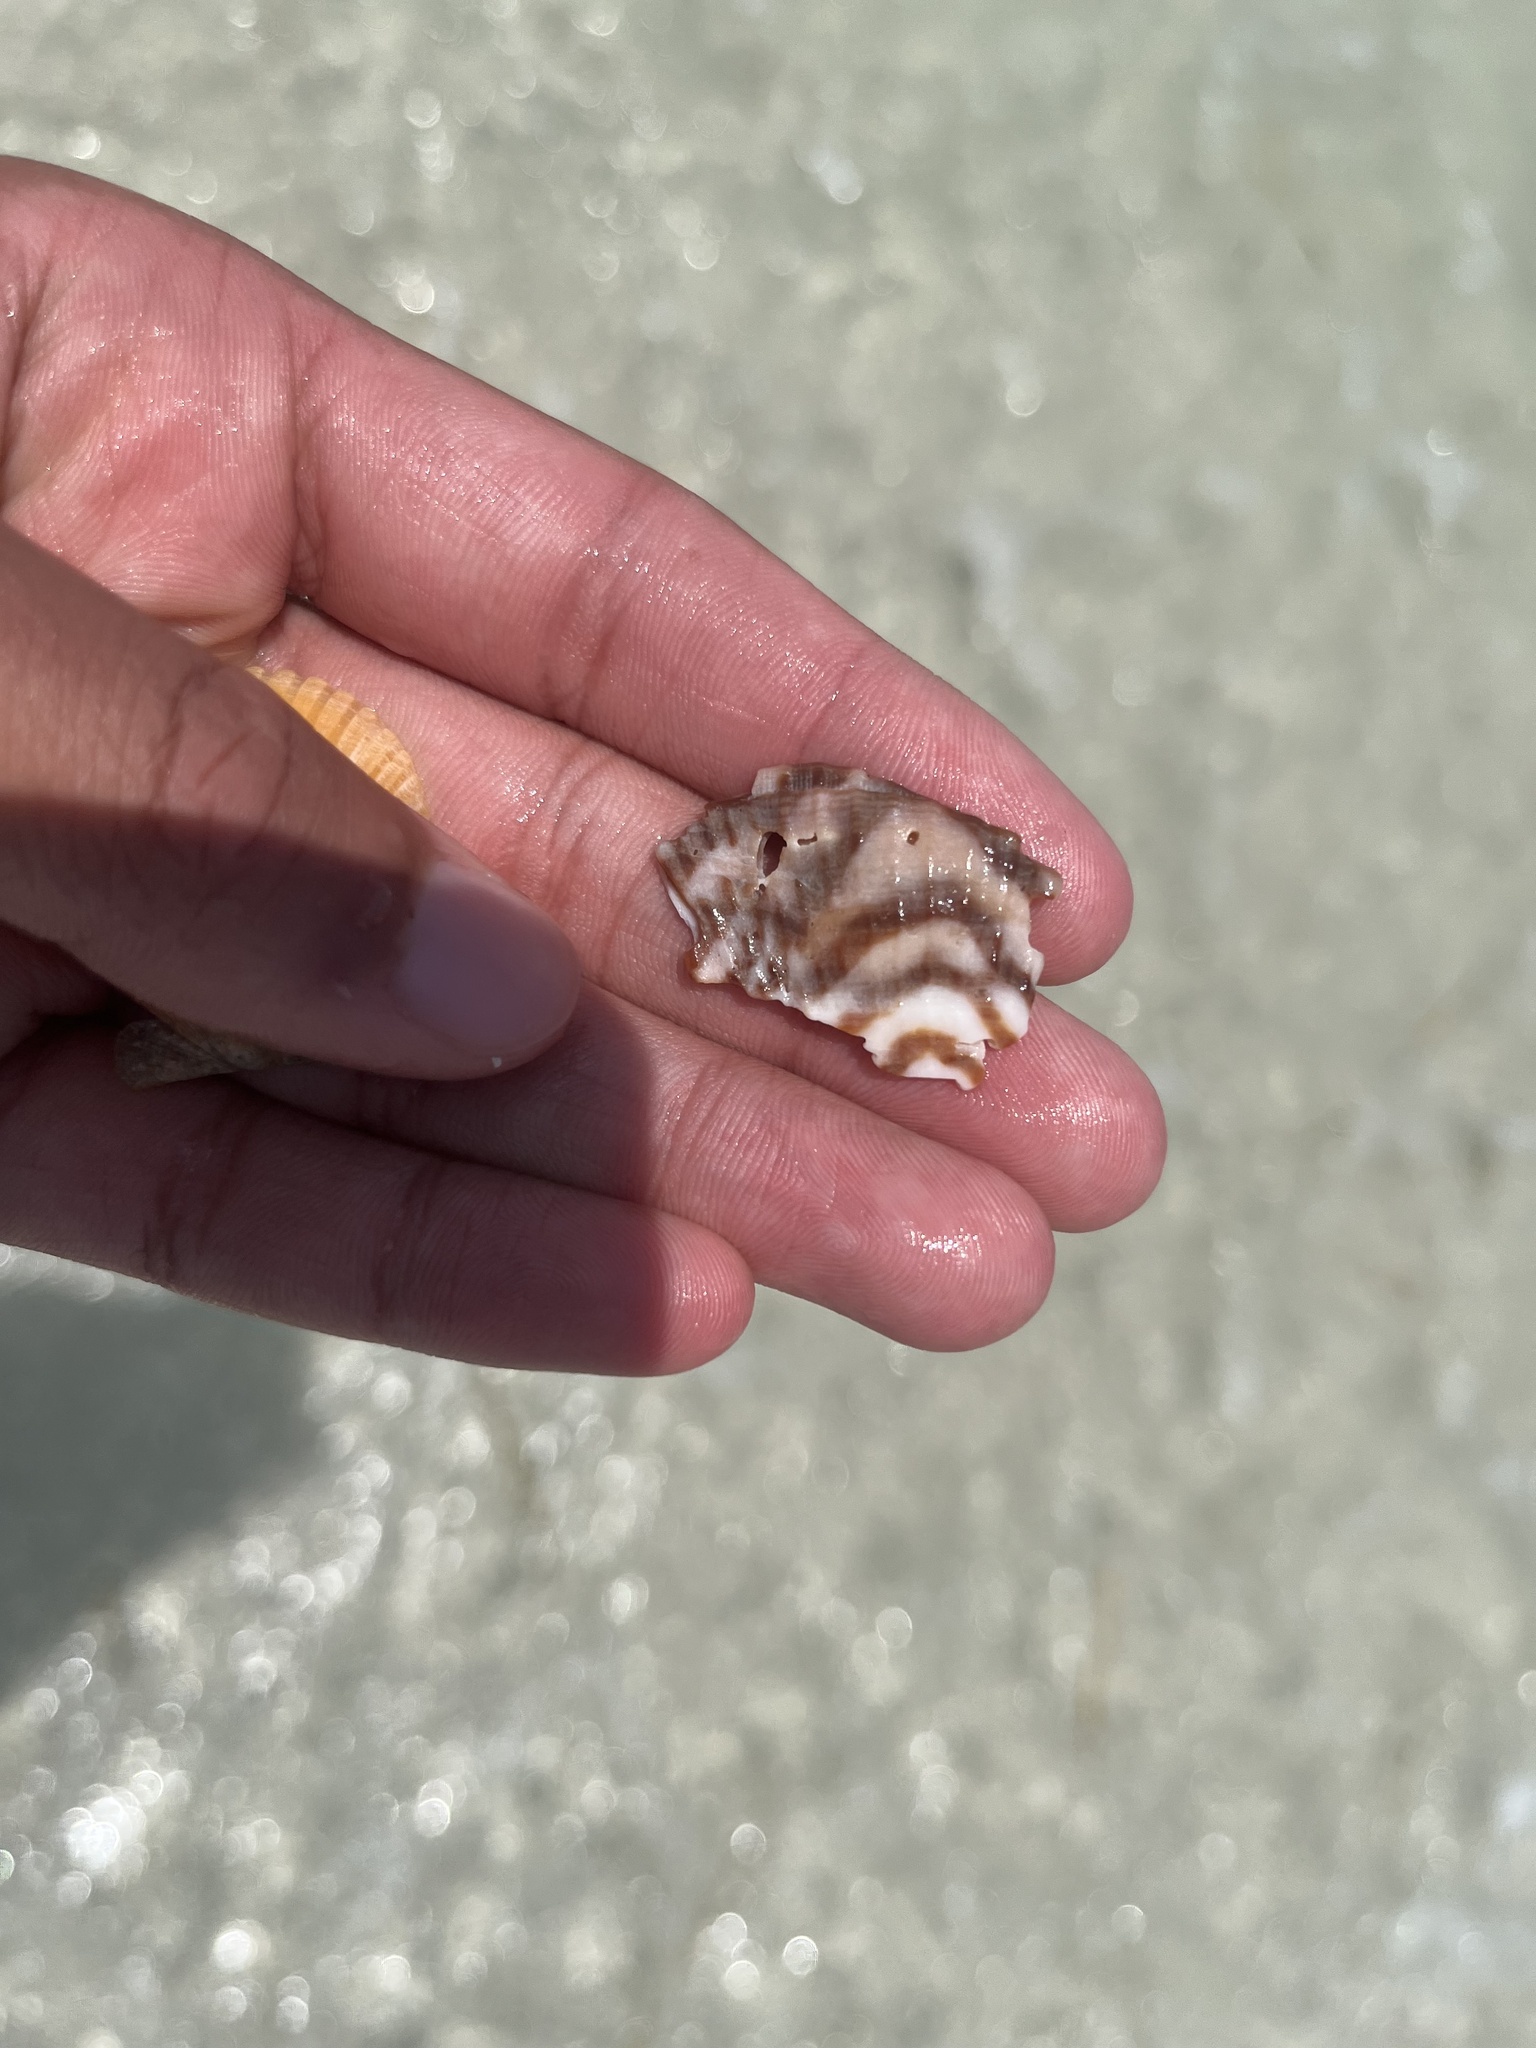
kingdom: Animalia
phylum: Mollusca
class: Bivalvia
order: Arcida
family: Arcidae
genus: Arca
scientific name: Arca zebra
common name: Atlantic turkey wing
